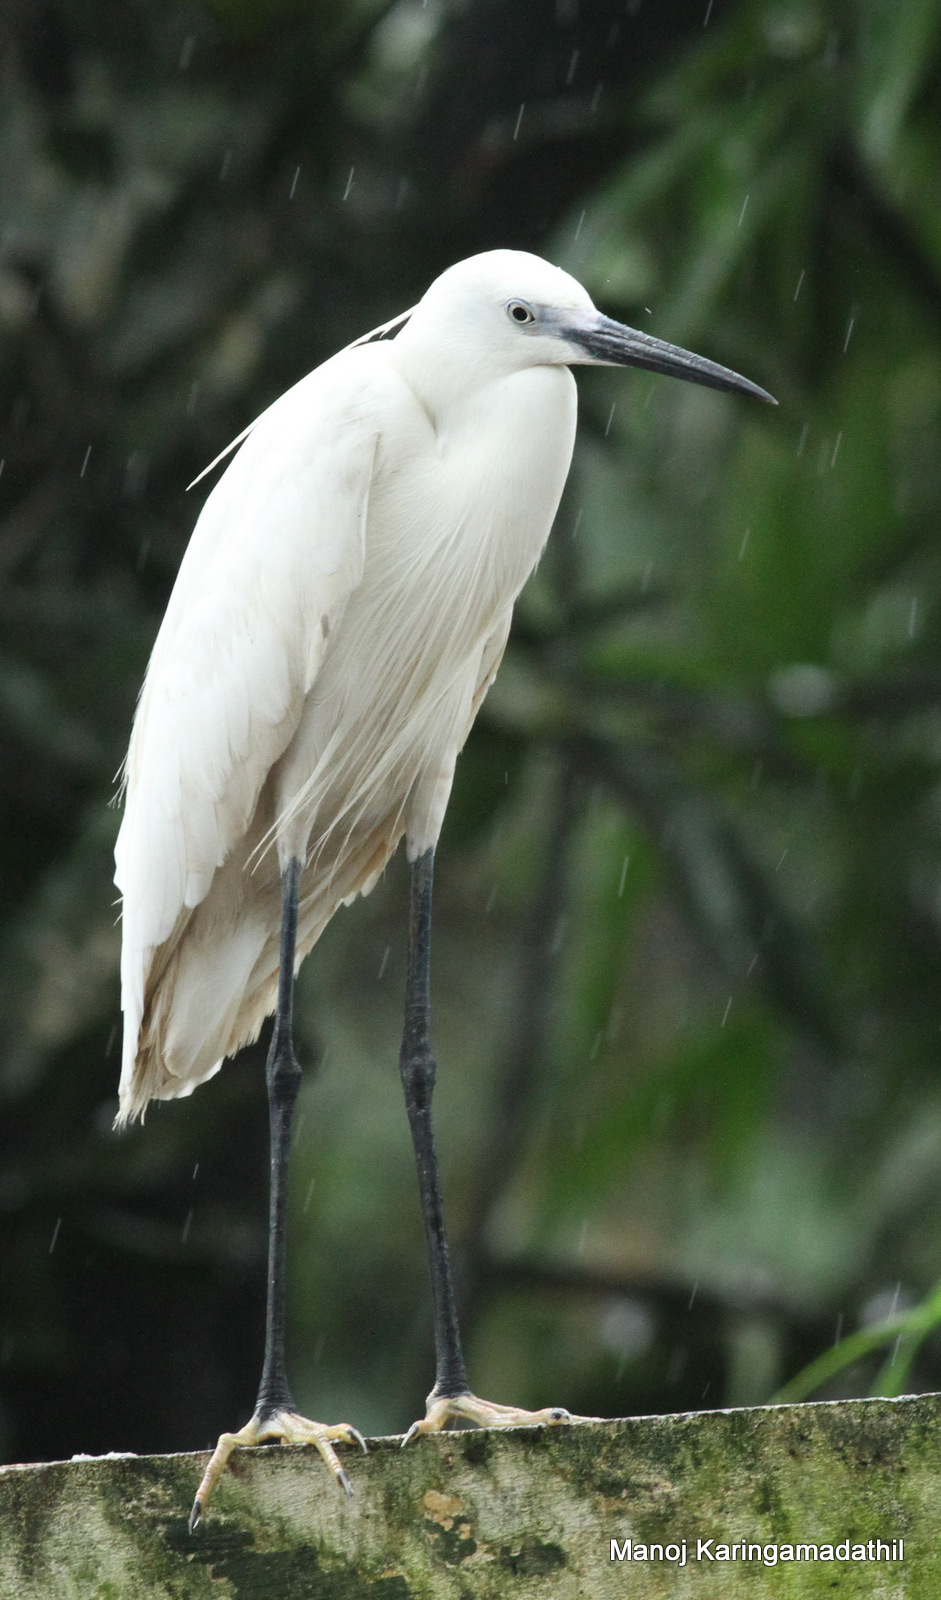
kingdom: Animalia
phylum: Chordata
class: Aves
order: Pelecaniformes
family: Ardeidae
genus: Egretta
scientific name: Egretta garzetta
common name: Little egret
